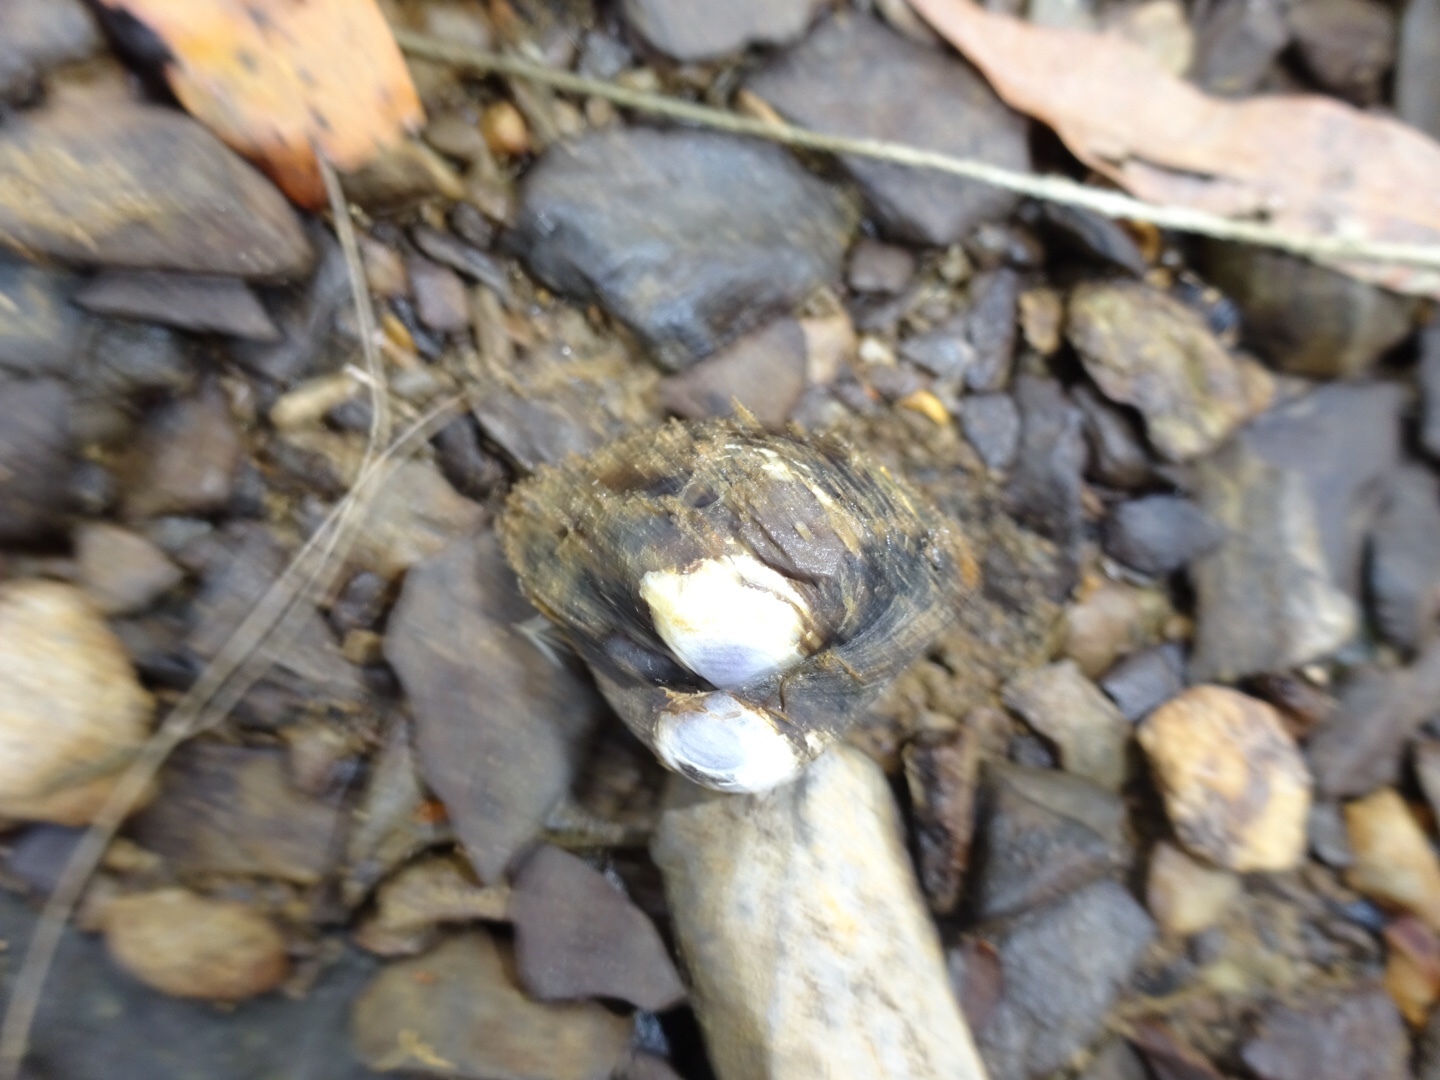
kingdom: Animalia
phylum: Mollusca
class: Bivalvia
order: Venerida
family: Cyrenidae
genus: Corbicula
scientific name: Corbicula fluminea
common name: Asian clam
